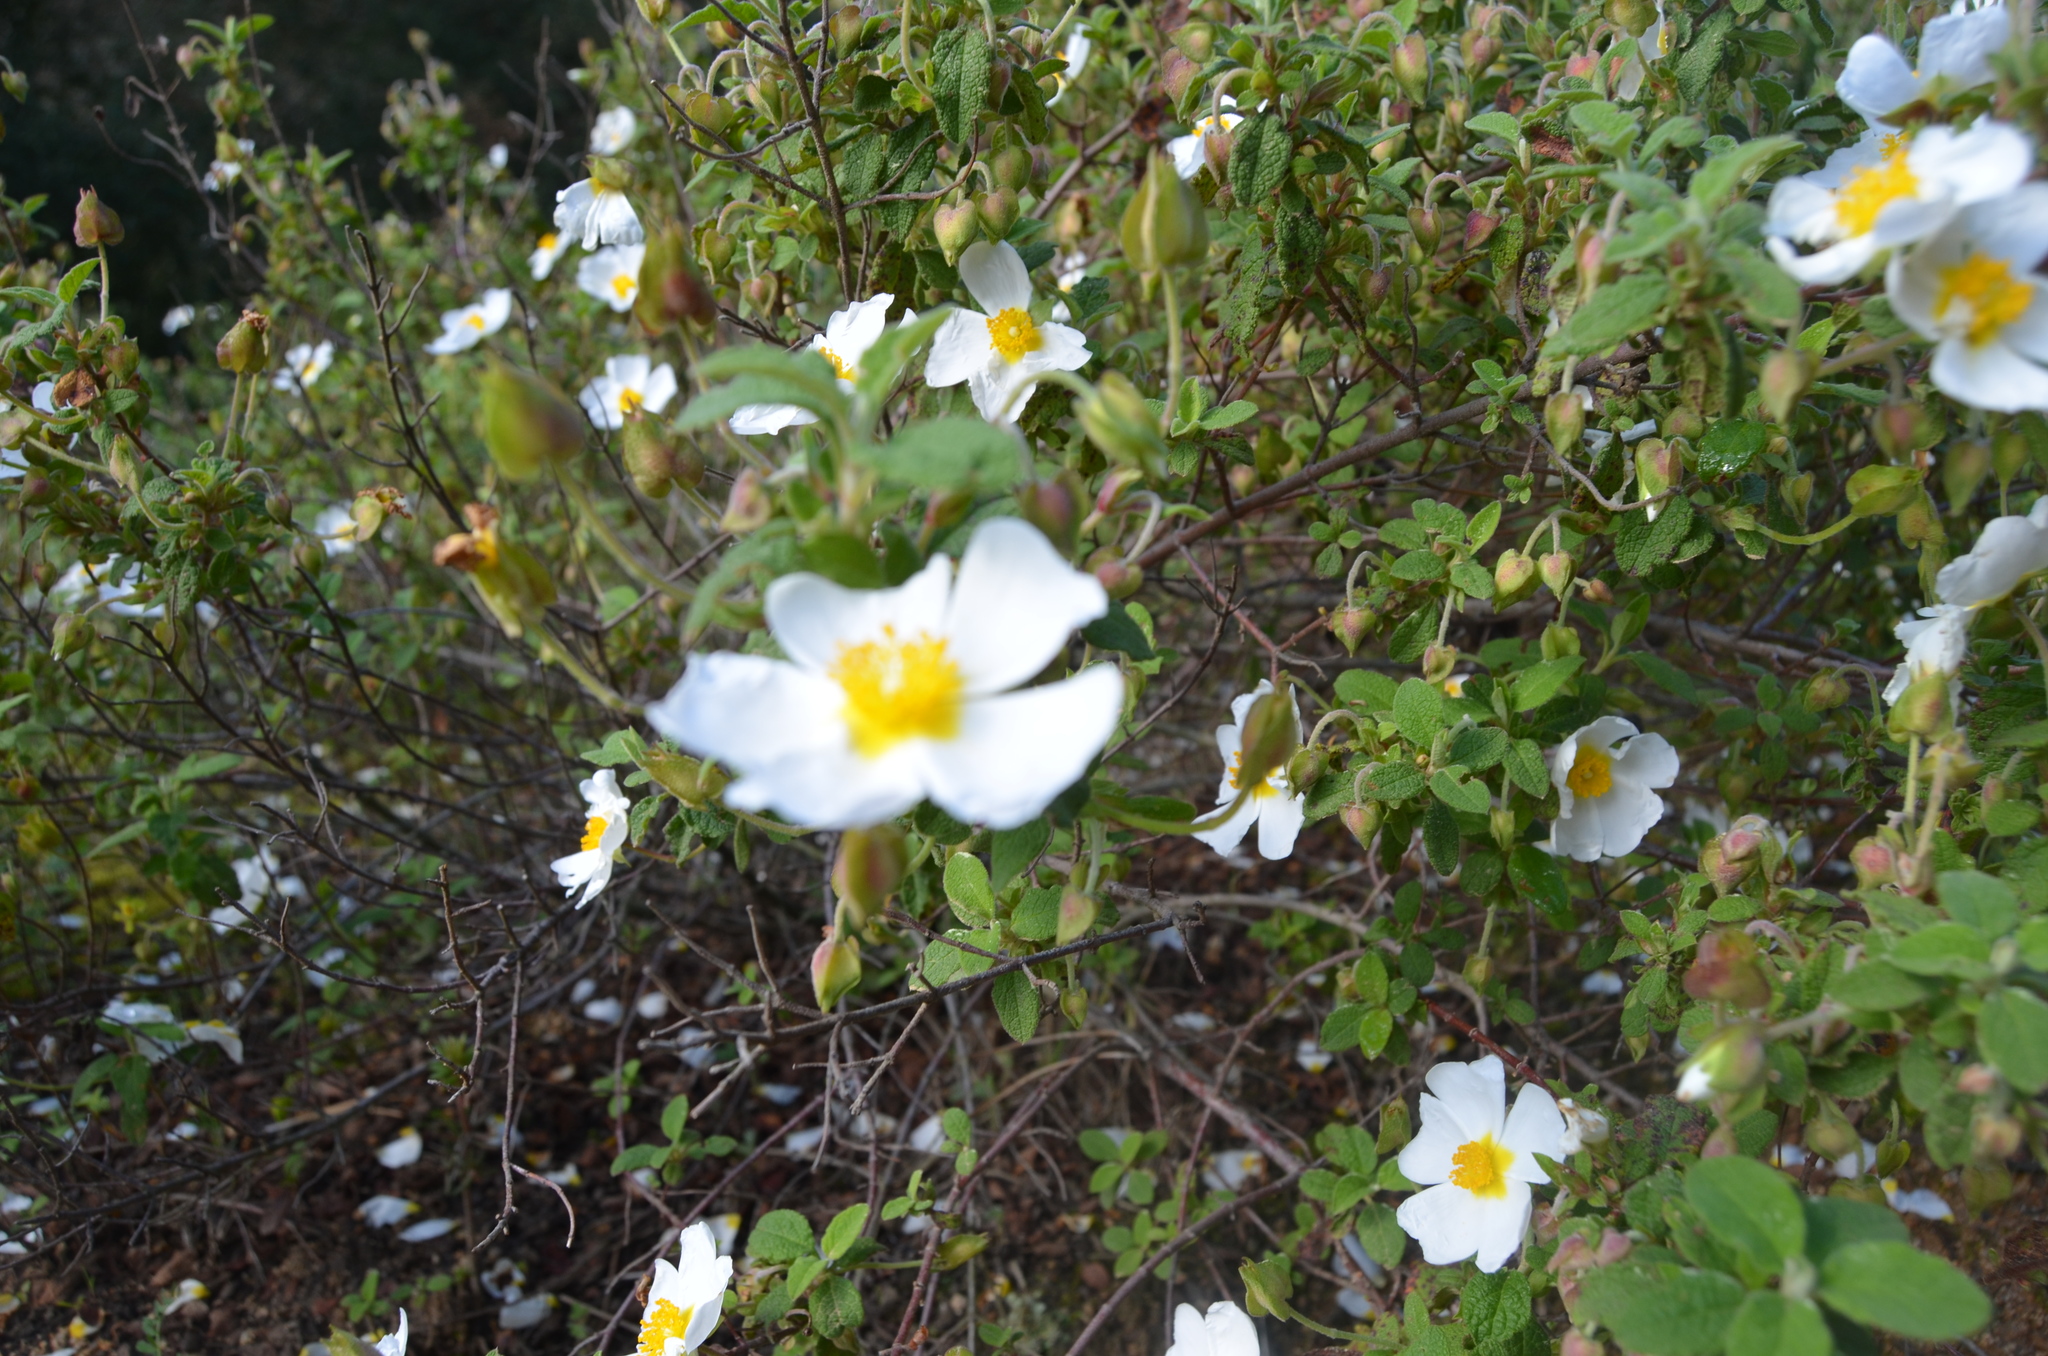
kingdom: Plantae
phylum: Tracheophyta
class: Magnoliopsida
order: Malvales
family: Cistaceae
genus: Cistus
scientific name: Cistus salviifolius
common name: Salvia cistus
